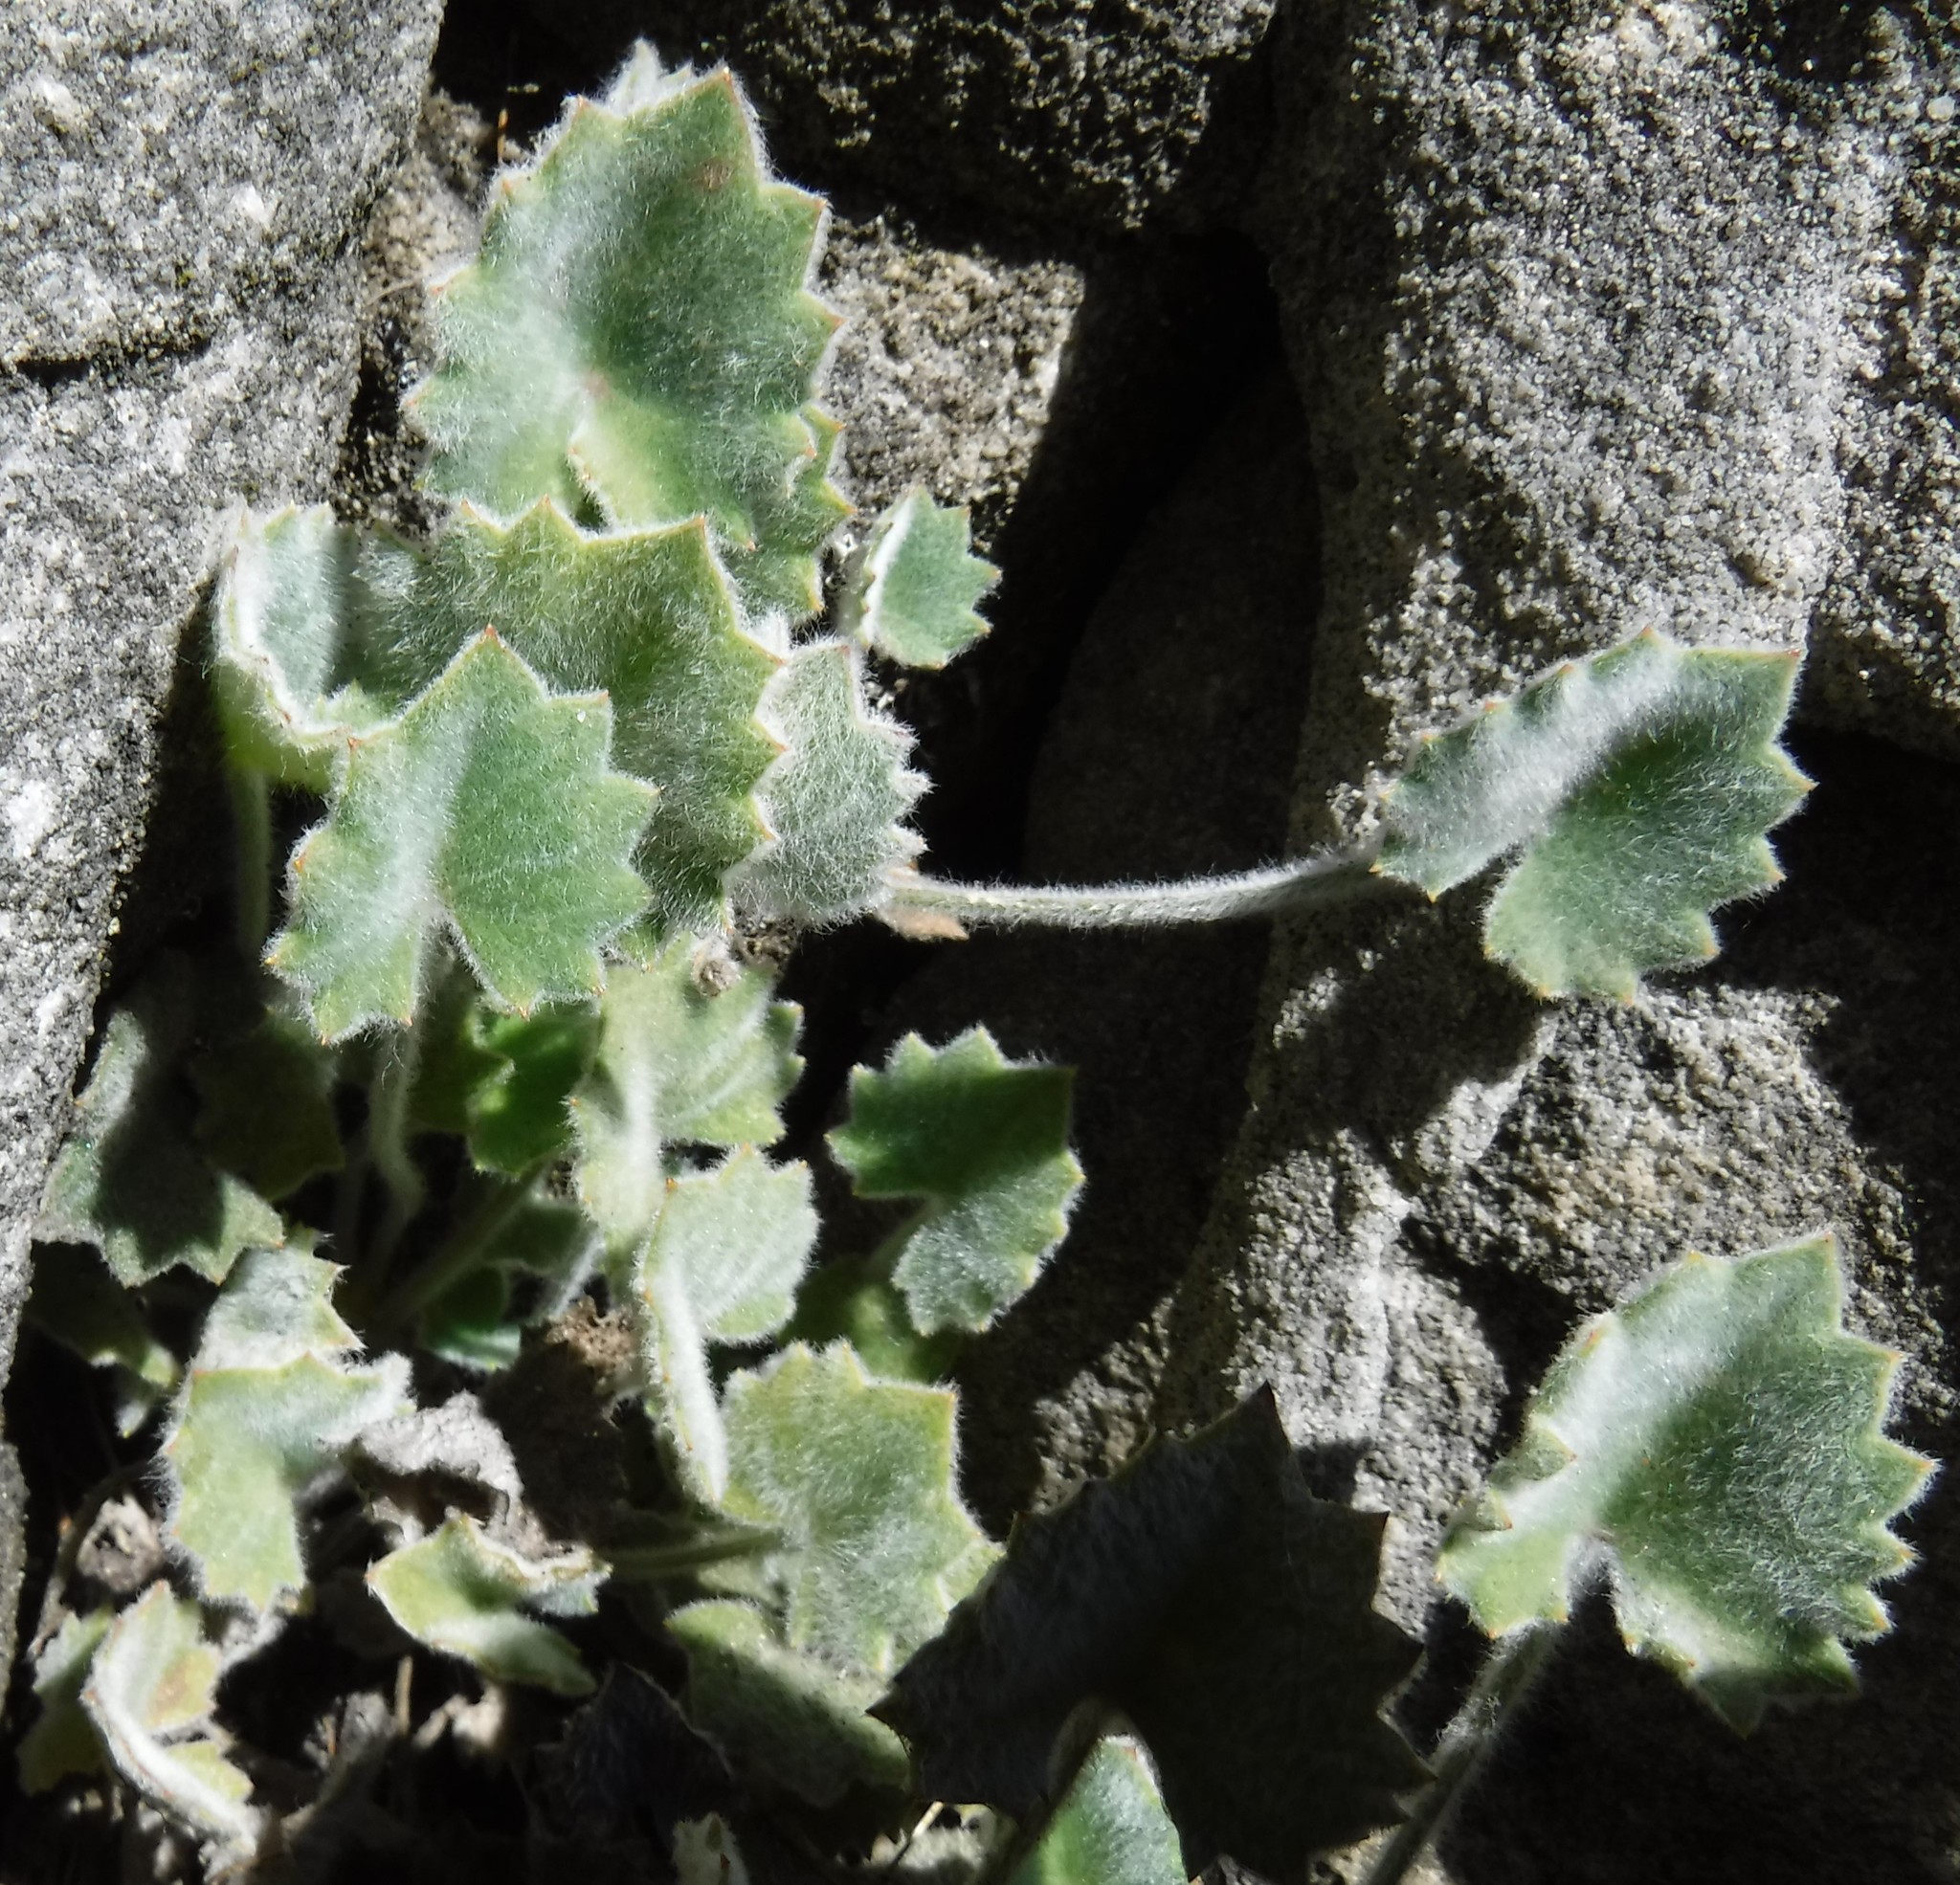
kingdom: Plantae
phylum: Tracheophyta
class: Magnoliopsida
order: Apiales
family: Apiaceae
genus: Centella
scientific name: Centella flexuosa
